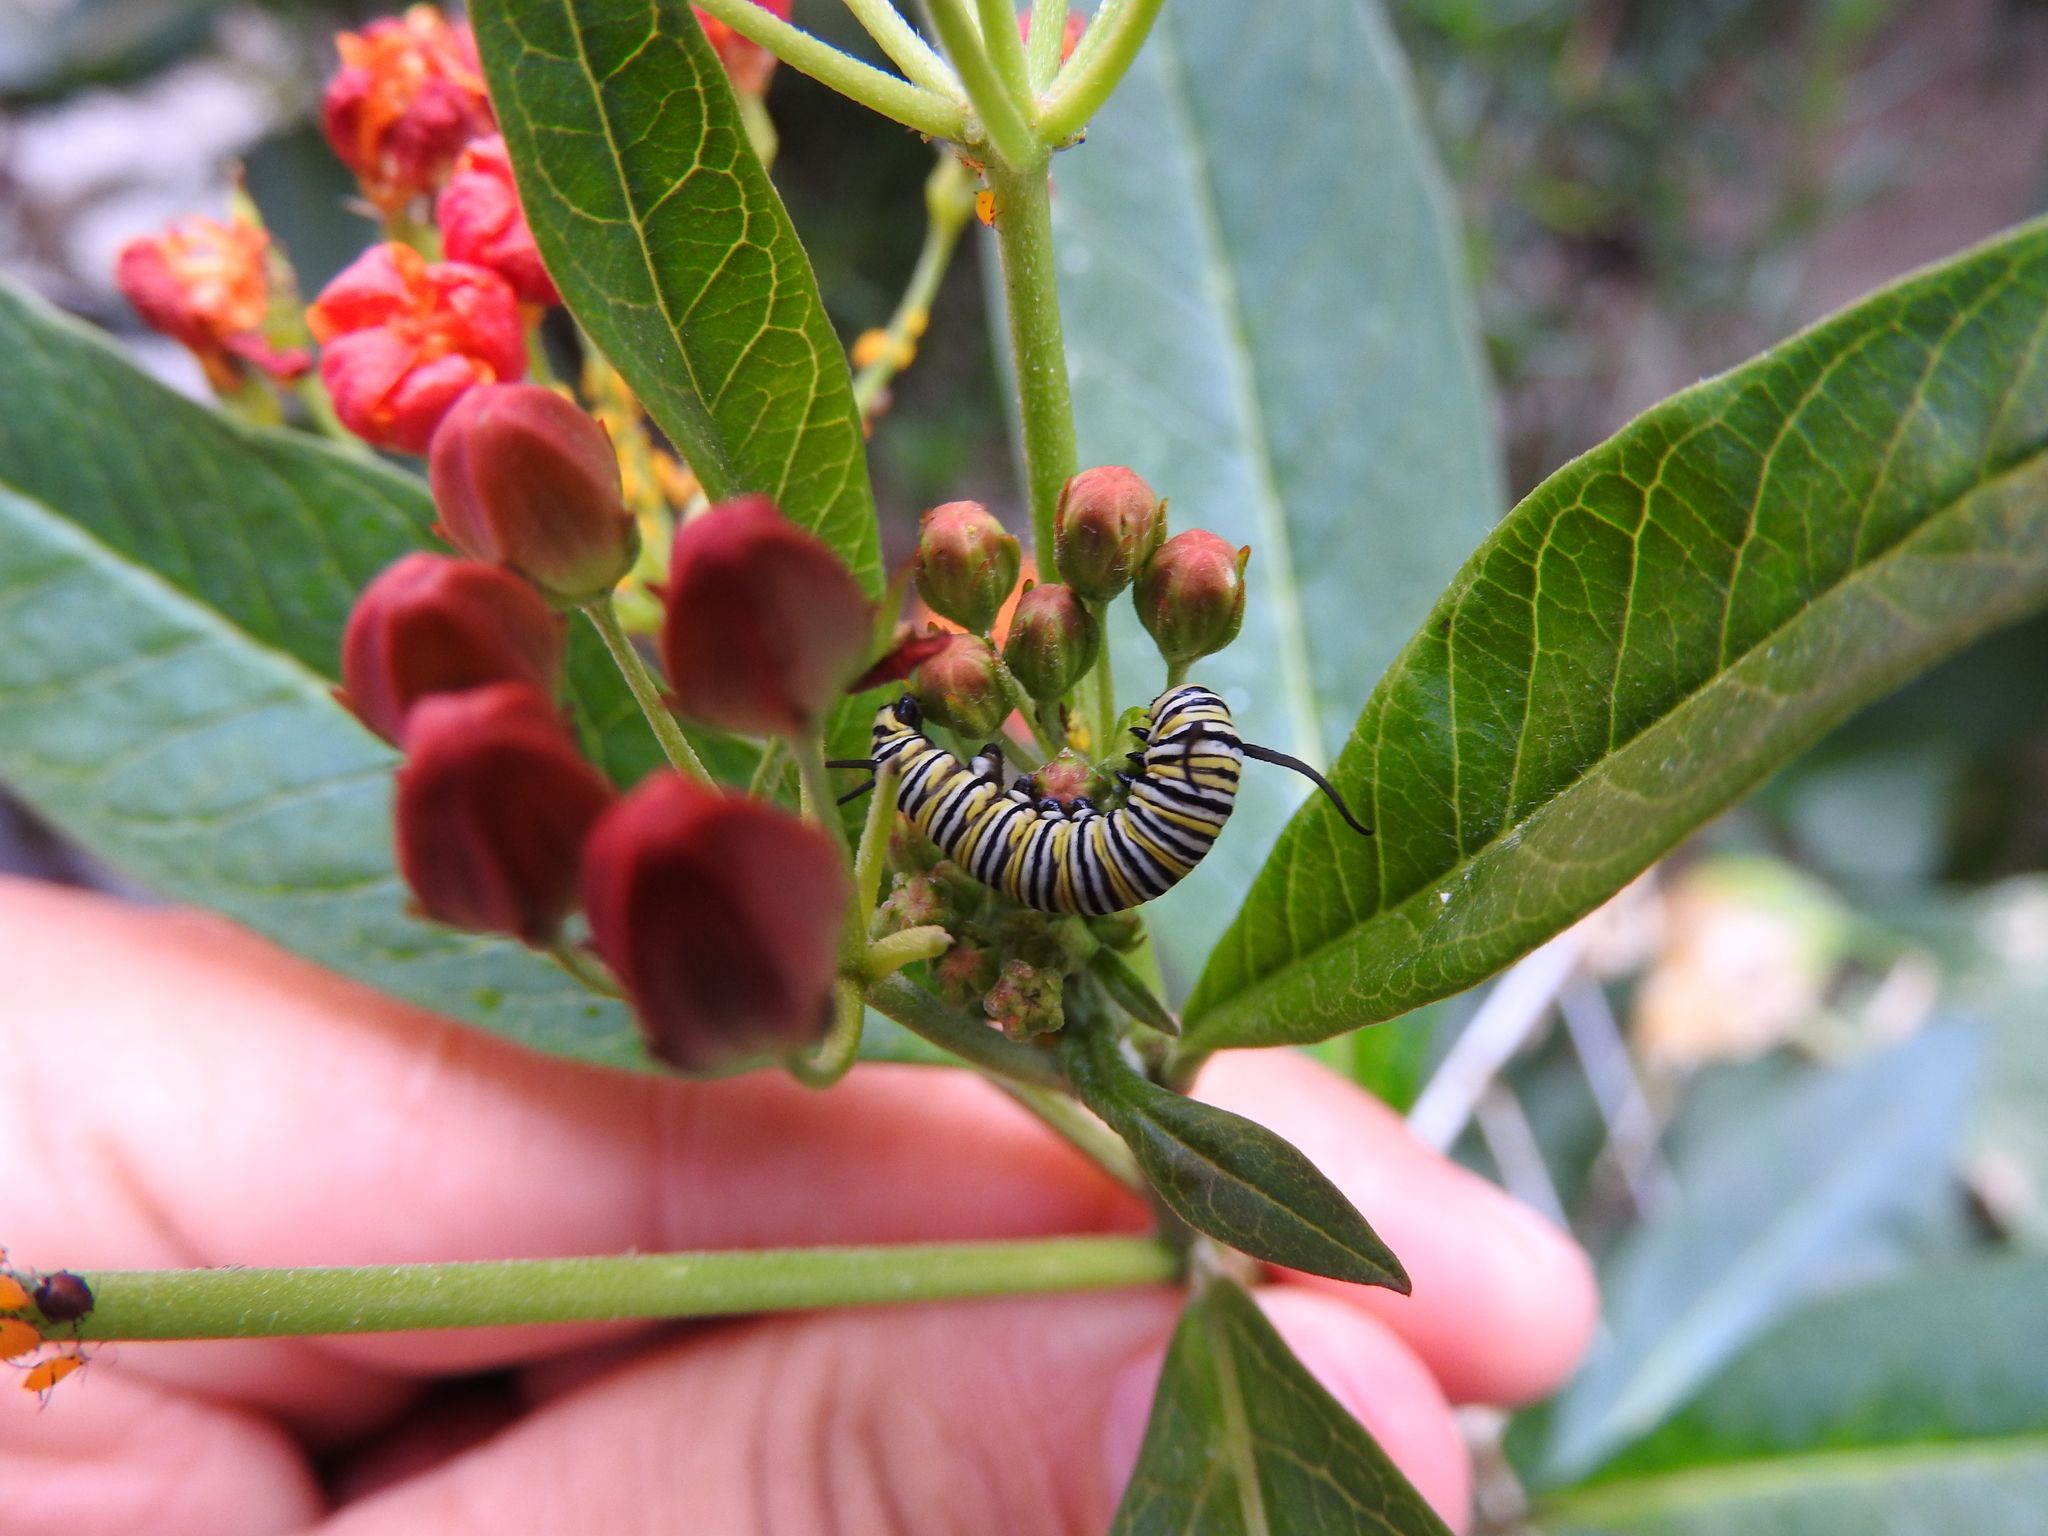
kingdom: Animalia
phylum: Arthropoda
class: Insecta
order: Lepidoptera
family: Nymphalidae
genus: Danaus
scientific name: Danaus plexippus
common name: Monarch
